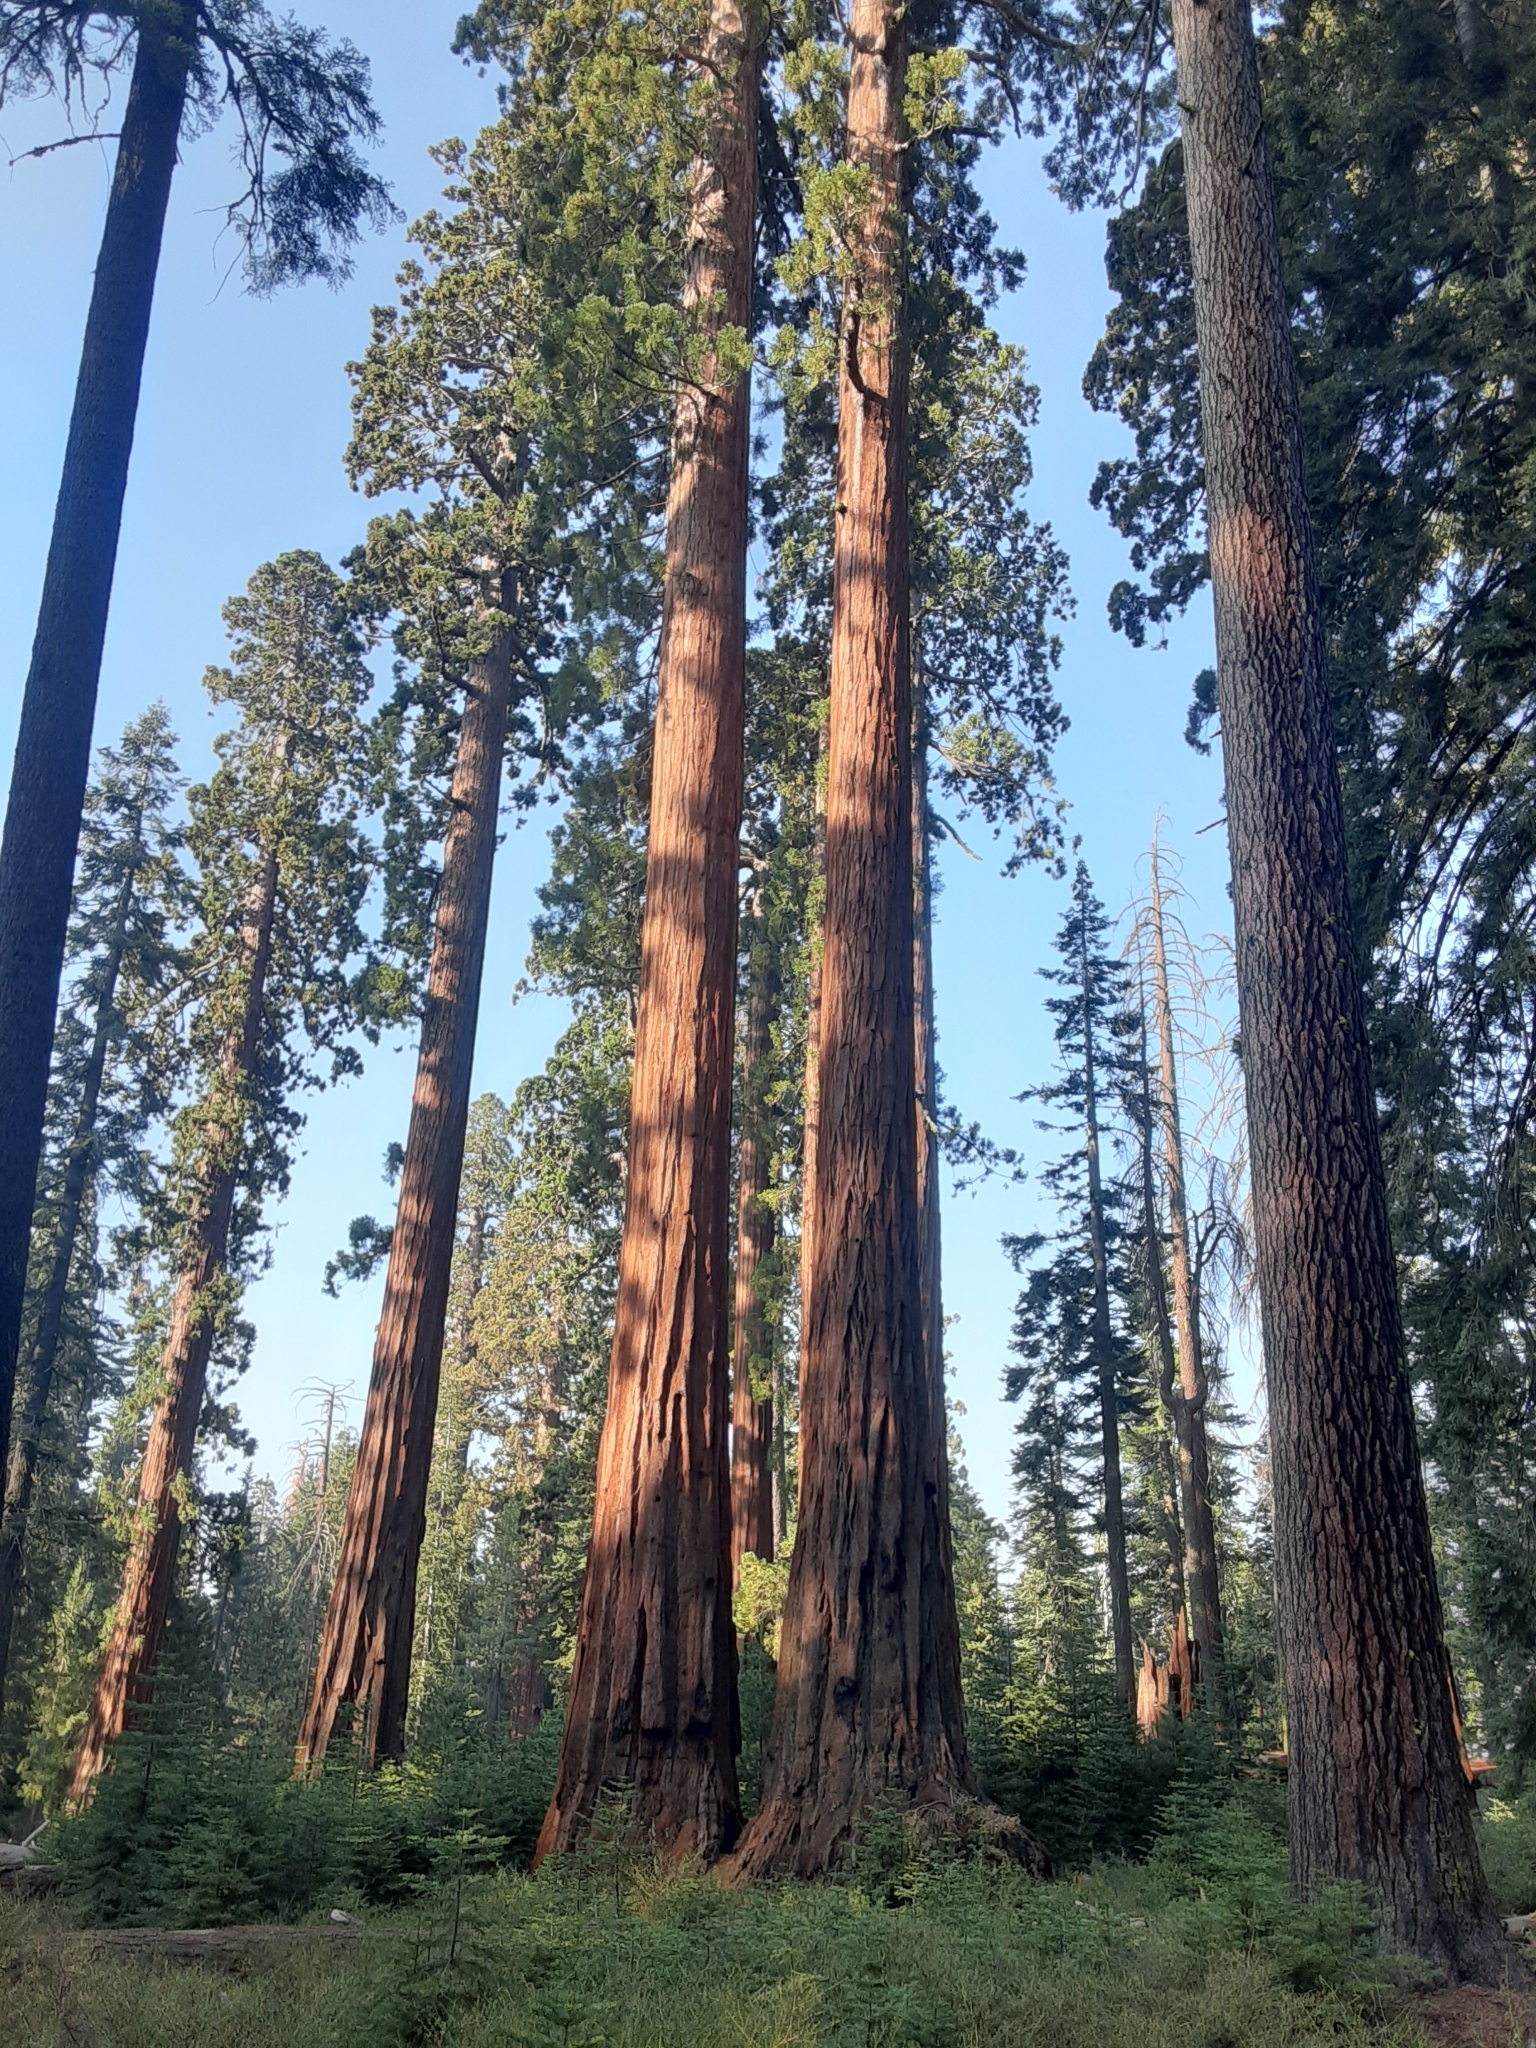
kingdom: Plantae
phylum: Tracheophyta
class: Pinopsida
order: Pinales
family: Cupressaceae
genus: Sequoiadendron
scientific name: Sequoiadendron giganteum
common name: Wellingtonia
